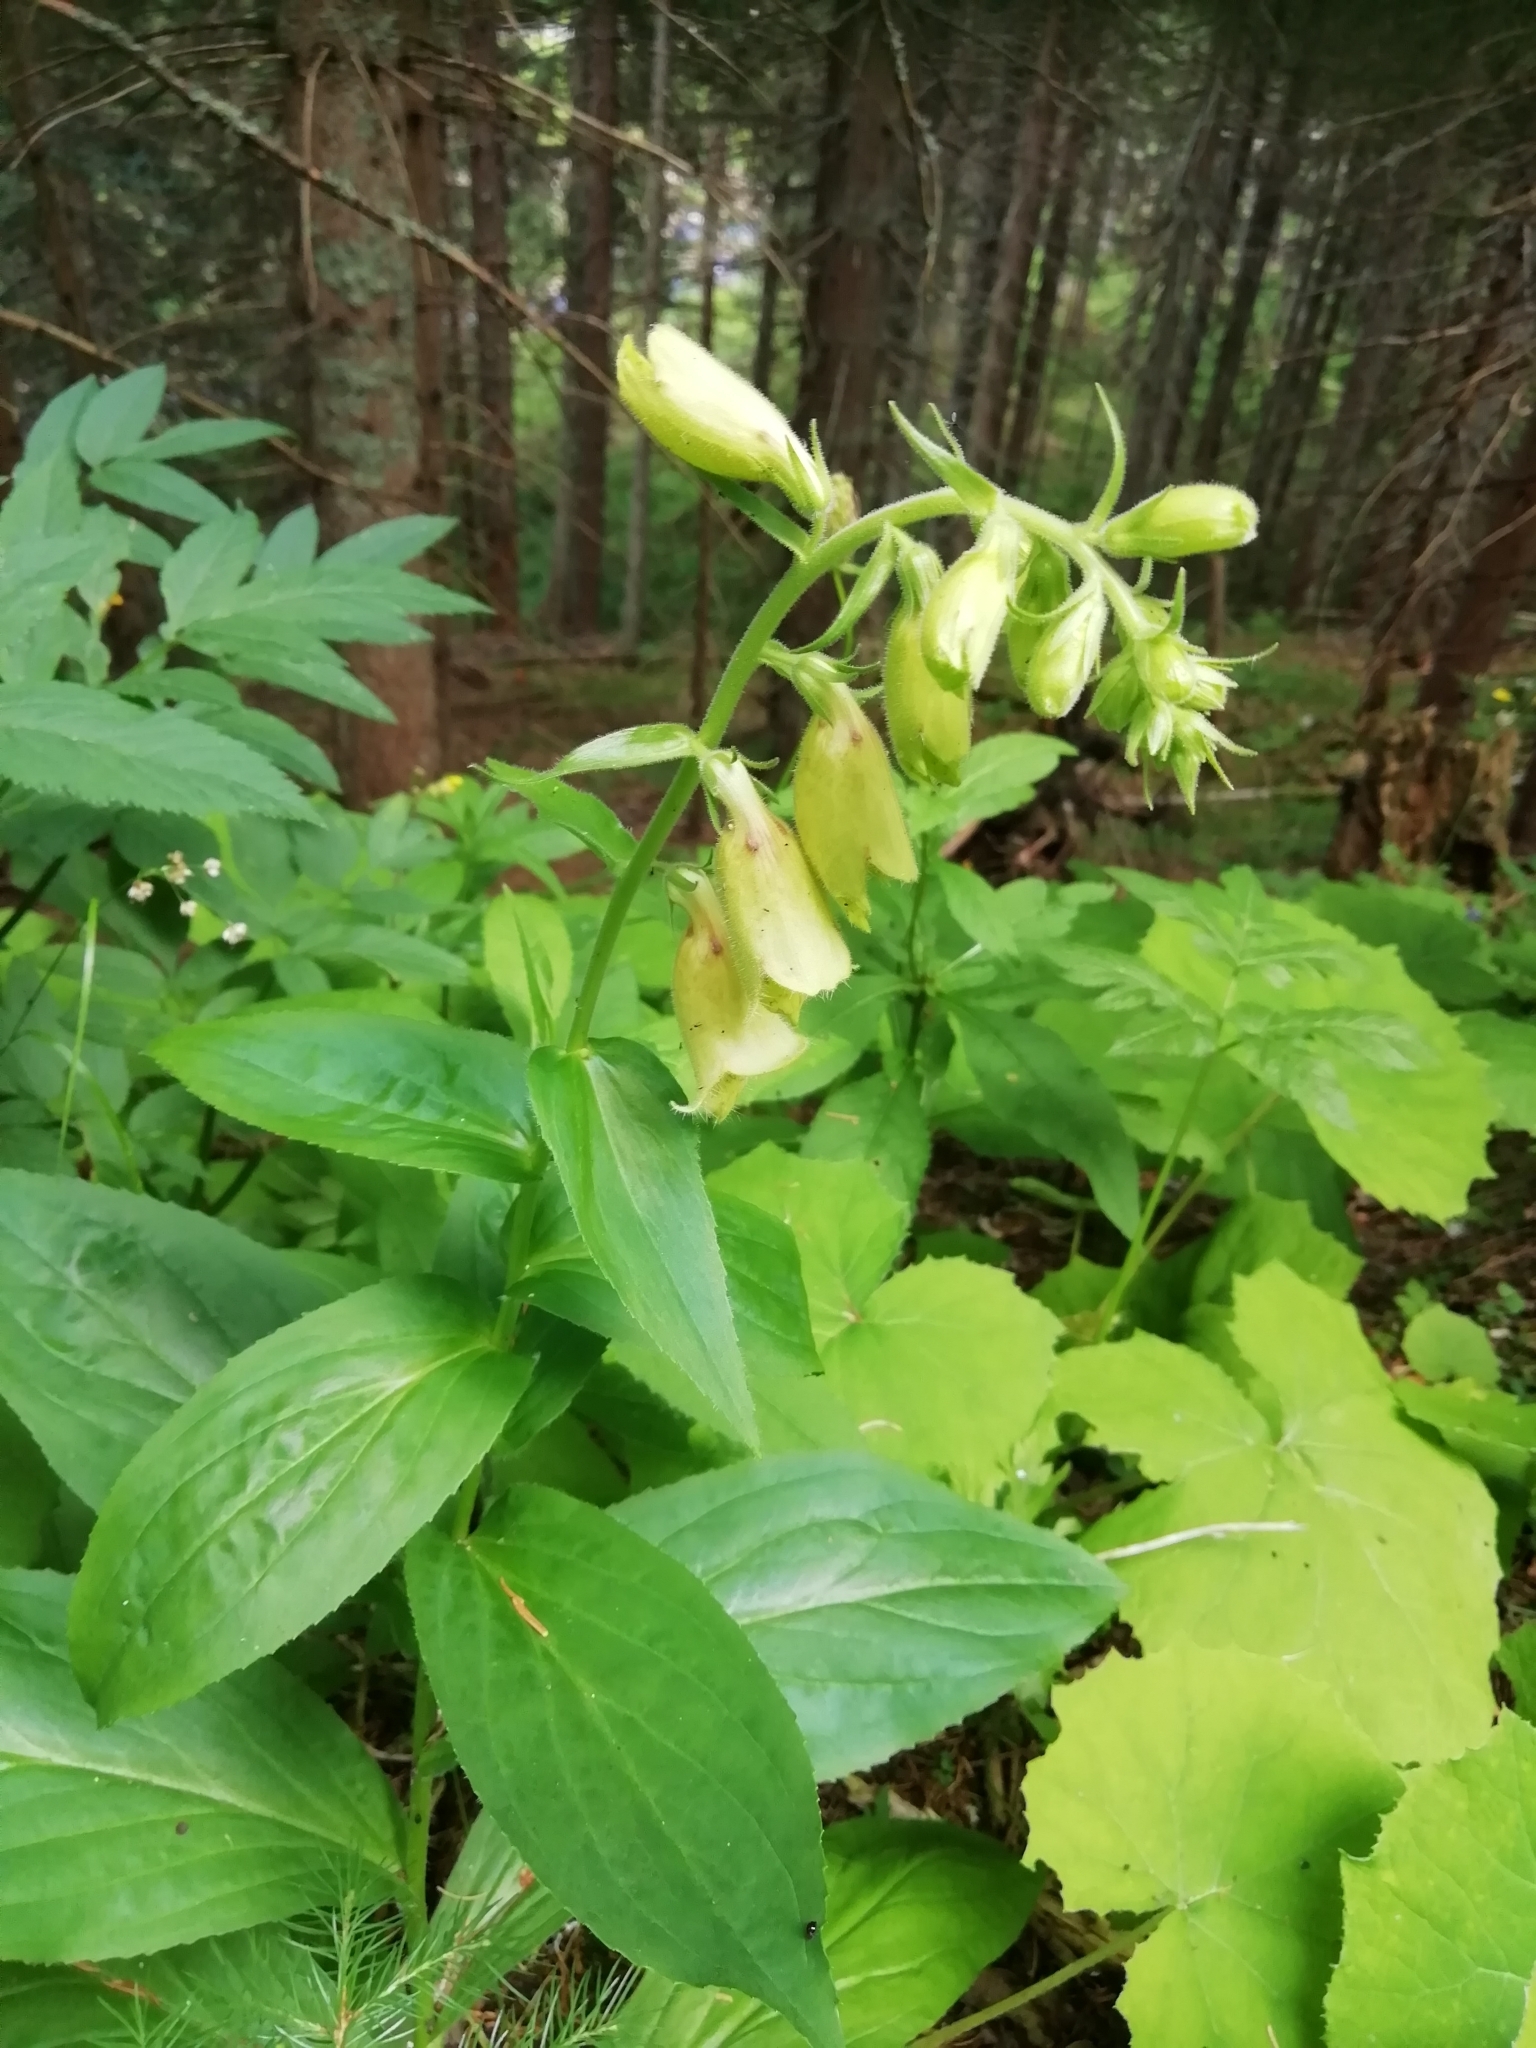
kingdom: Plantae
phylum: Tracheophyta
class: Magnoliopsida
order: Lamiales
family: Plantaginaceae
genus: Digitalis
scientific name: Digitalis grandiflora
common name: Yellow foxglove
